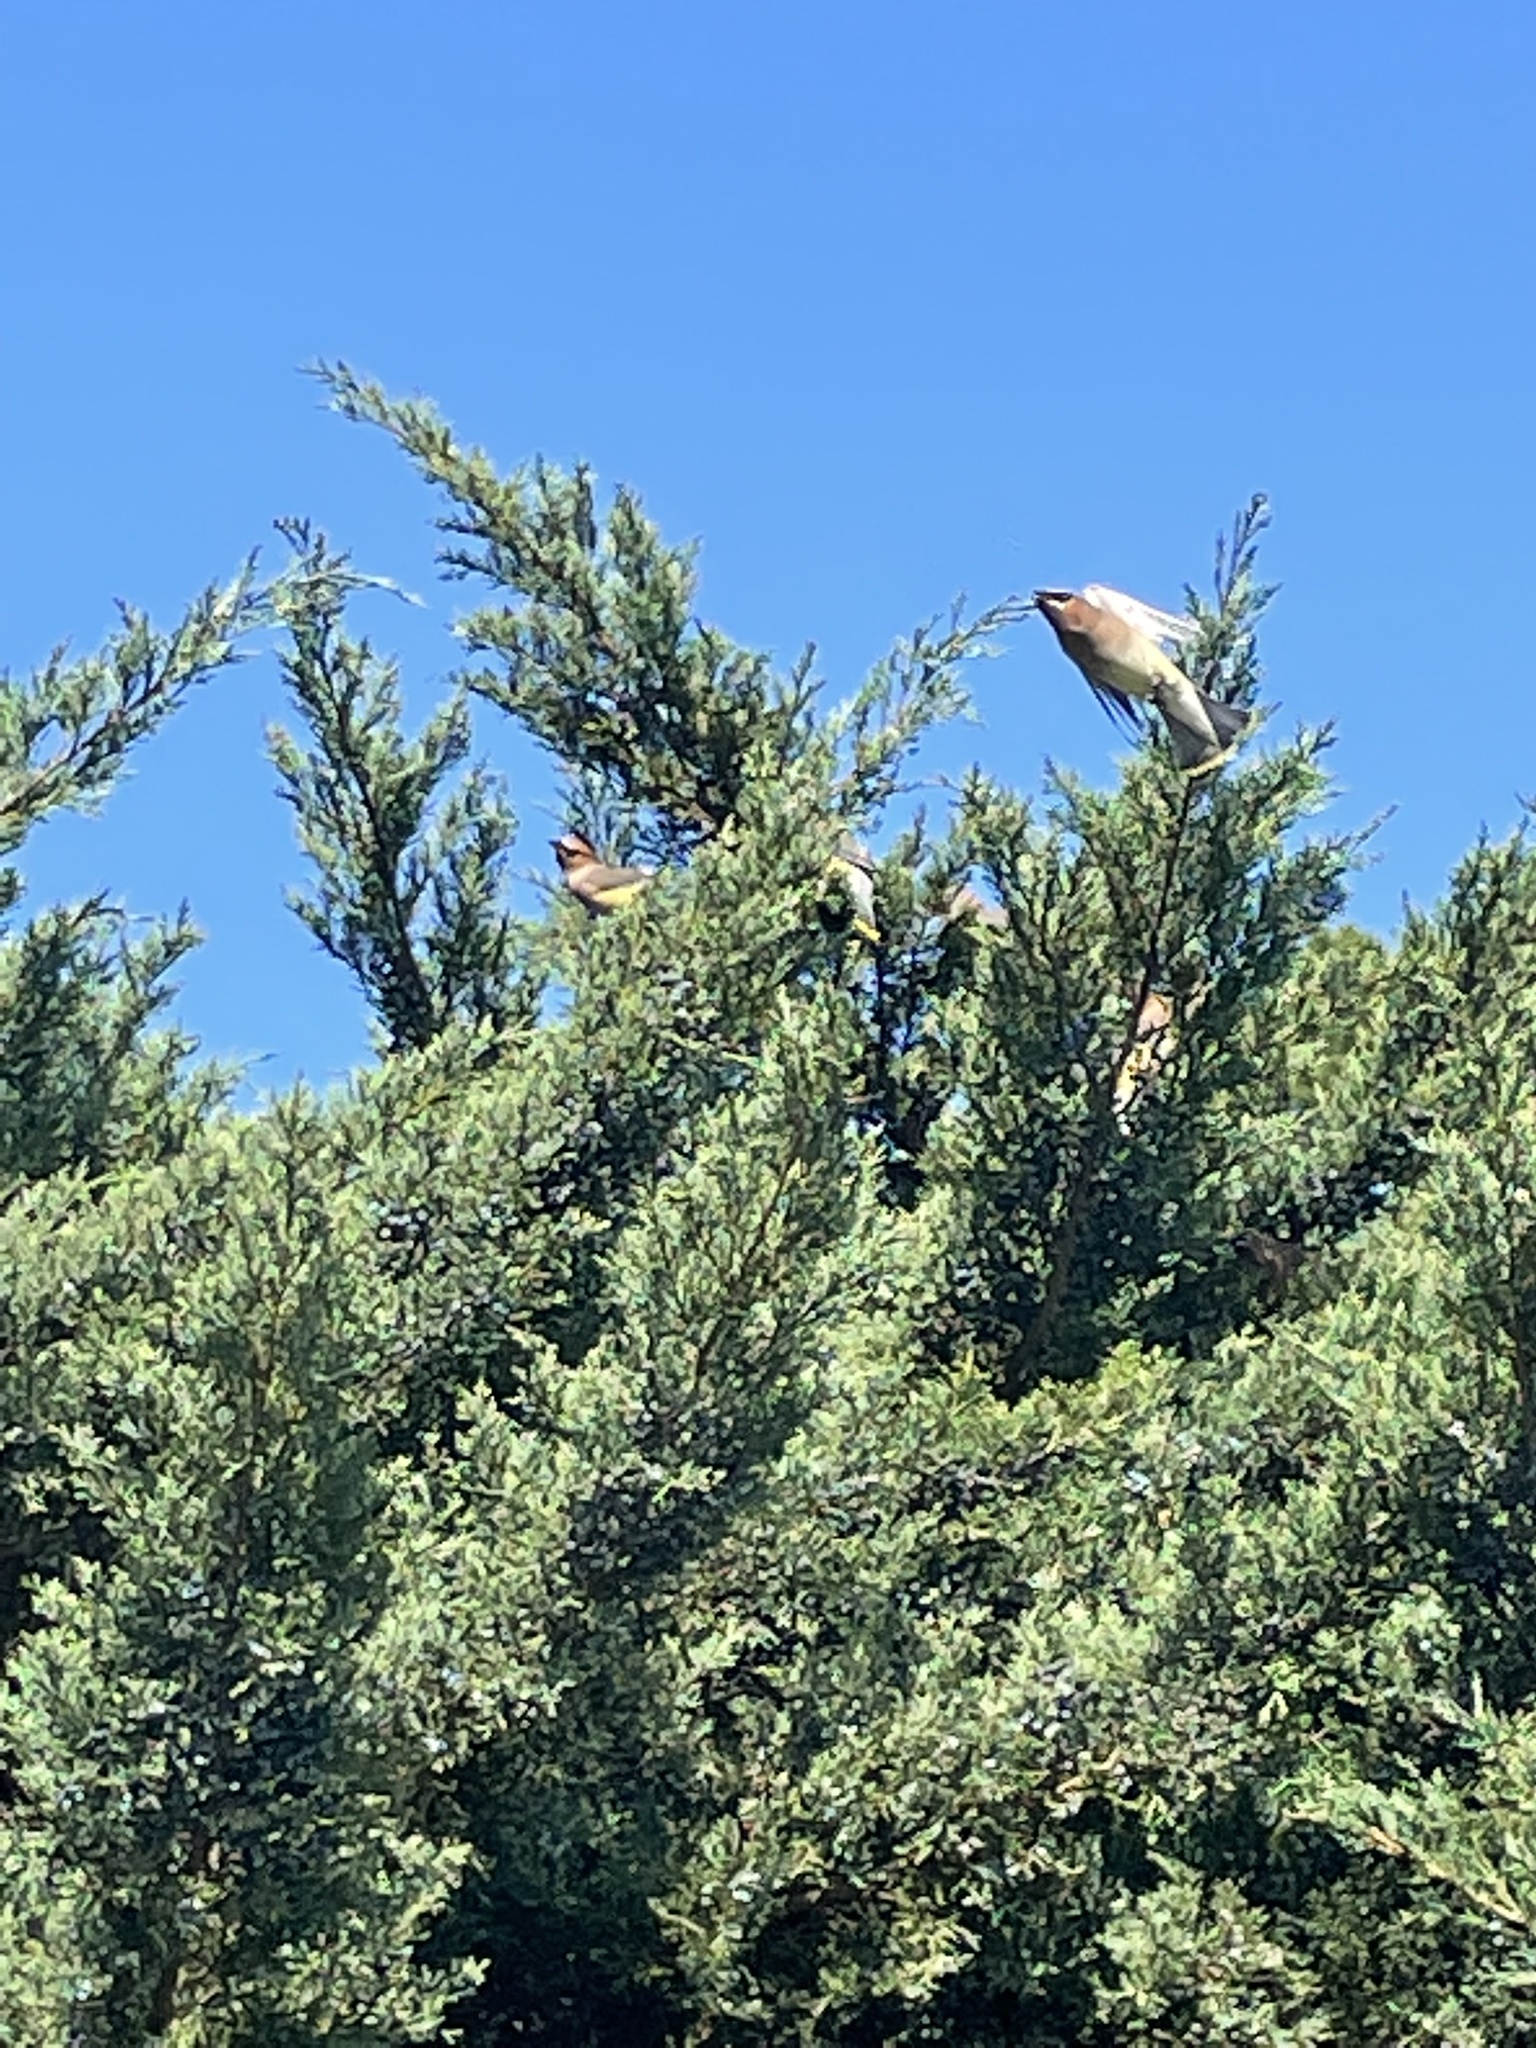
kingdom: Animalia
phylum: Chordata
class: Aves
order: Passeriformes
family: Bombycillidae
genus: Bombycilla
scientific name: Bombycilla cedrorum
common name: Cedar waxwing
